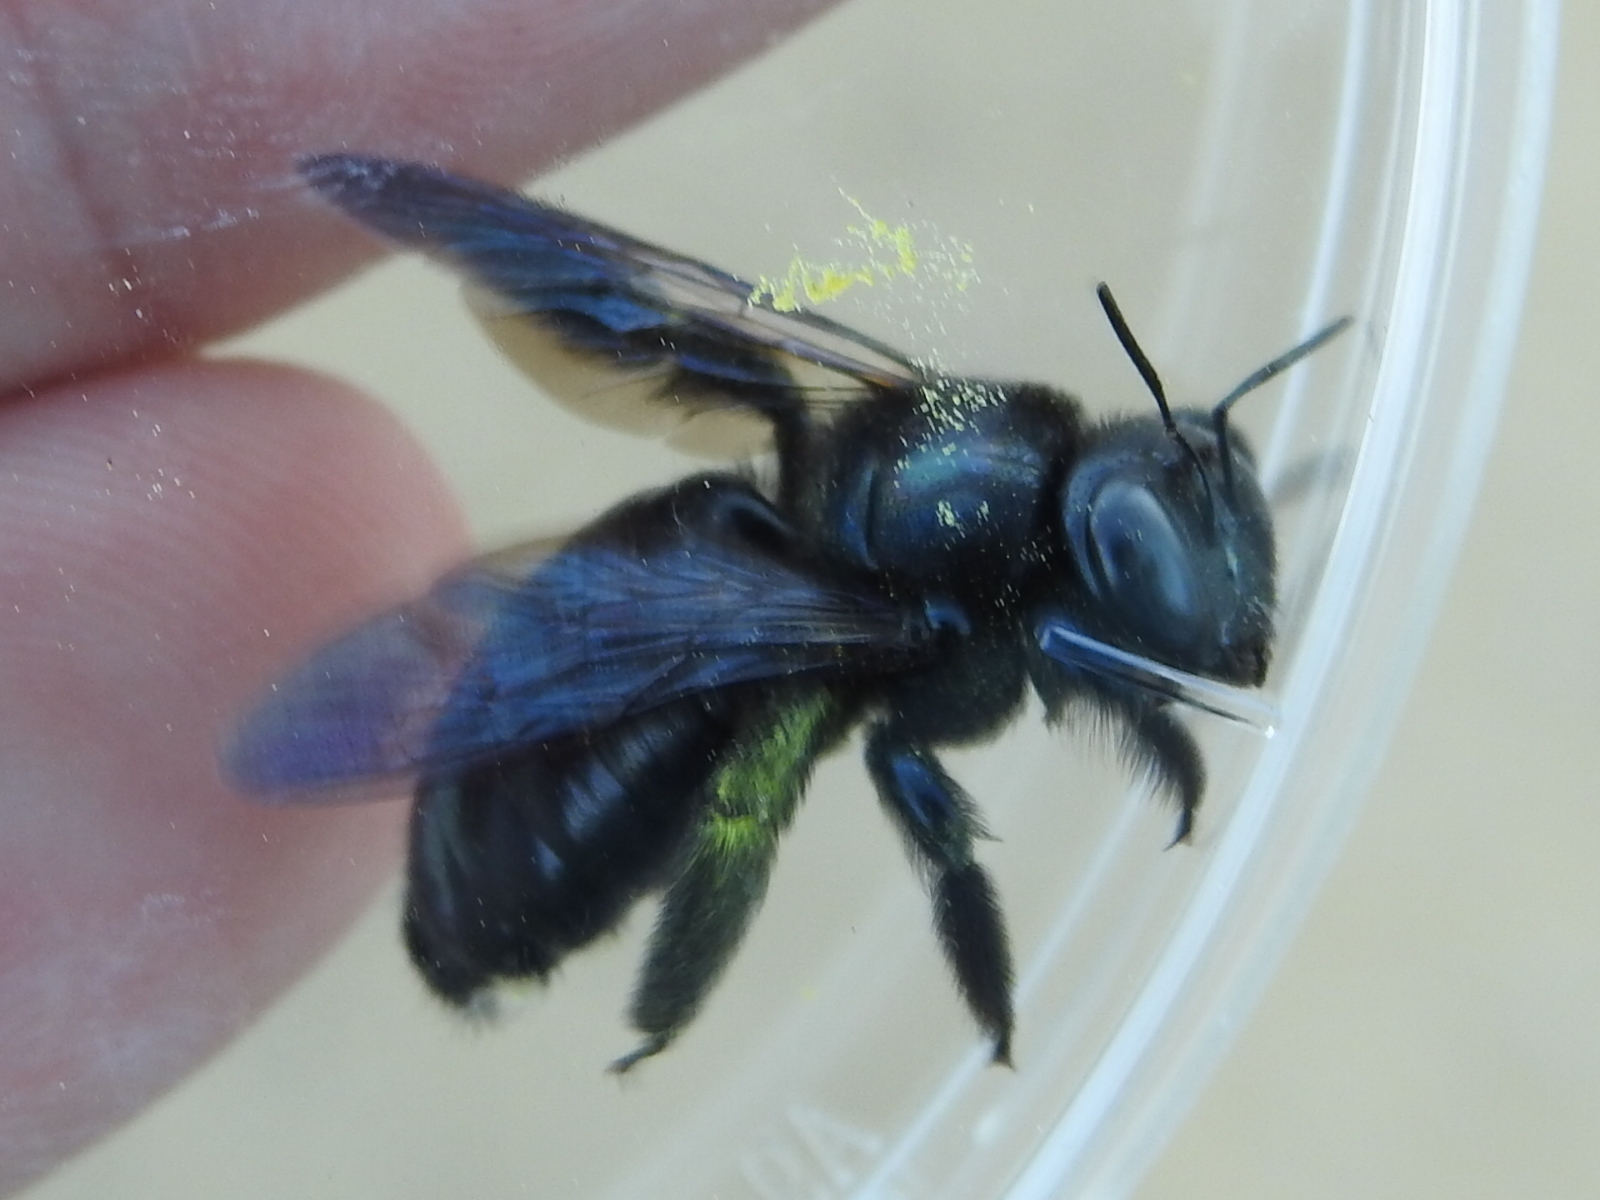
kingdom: Animalia
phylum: Arthropoda
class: Insecta
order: Hymenoptera
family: Apidae
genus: Xylocopa
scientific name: Xylocopa micans
